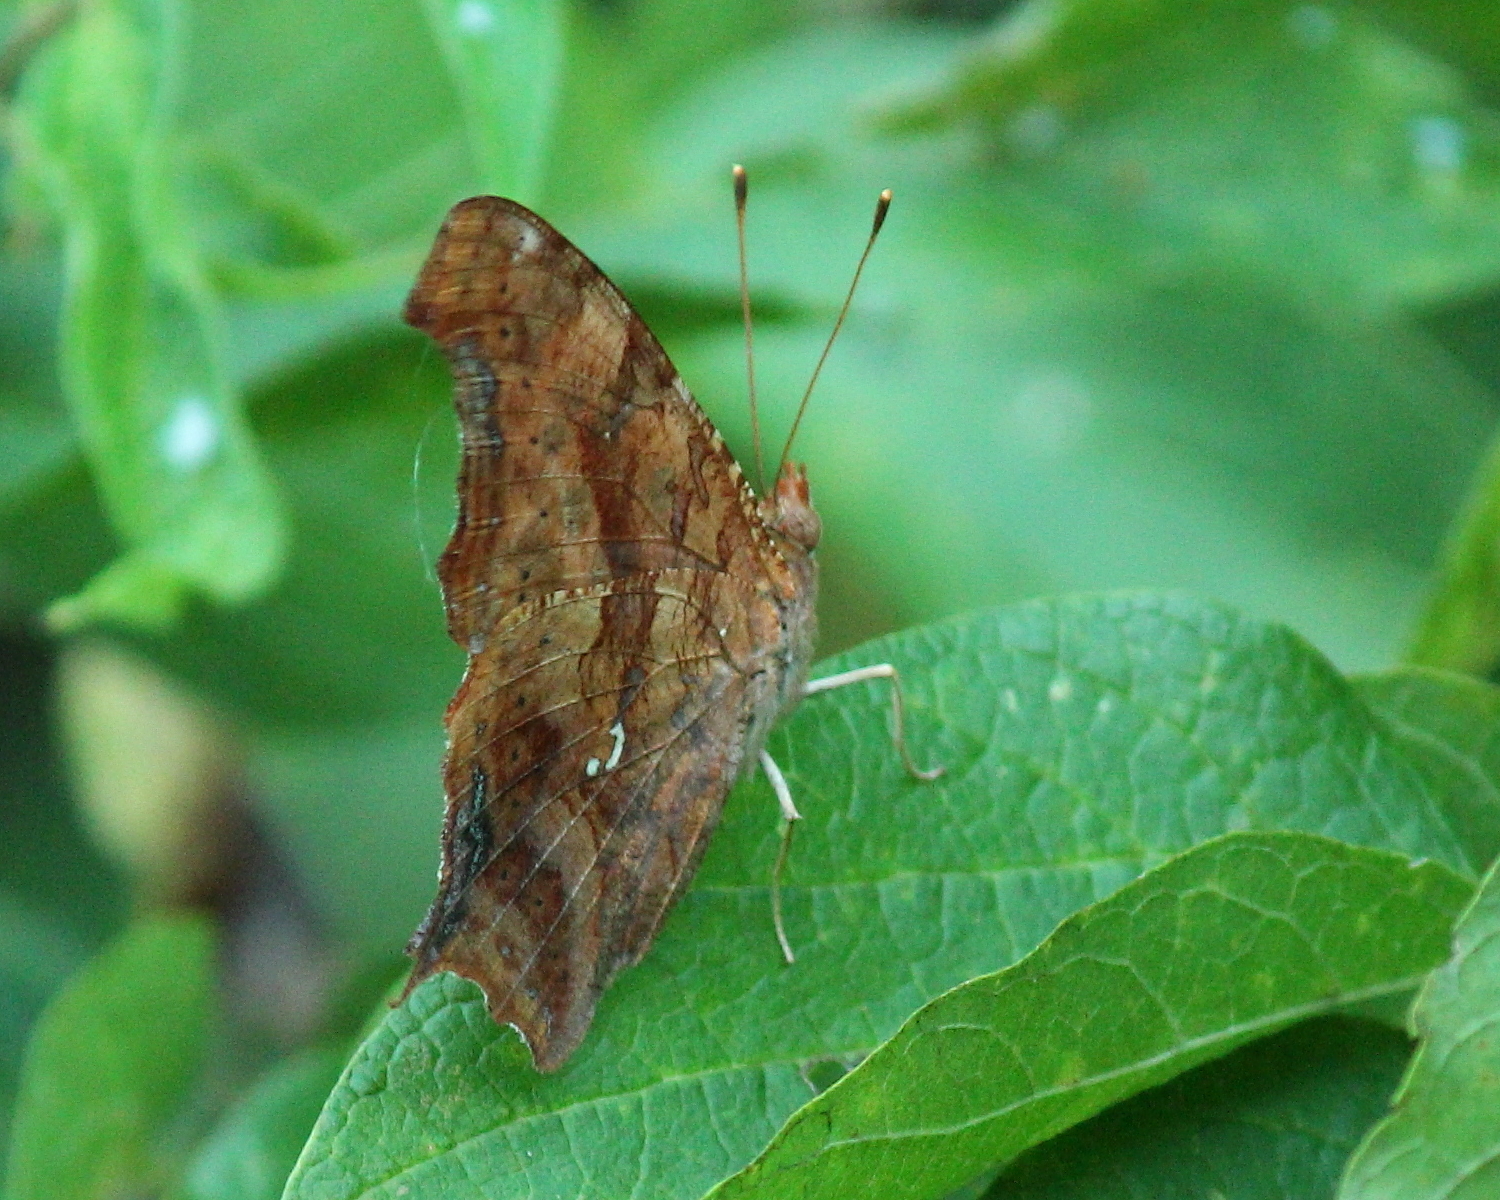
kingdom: Animalia
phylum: Arthropoda
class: Insecta
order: Lepidoptera
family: Nymphalidae
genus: Polygonia
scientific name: Polygonia interrogationis
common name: Question mark
